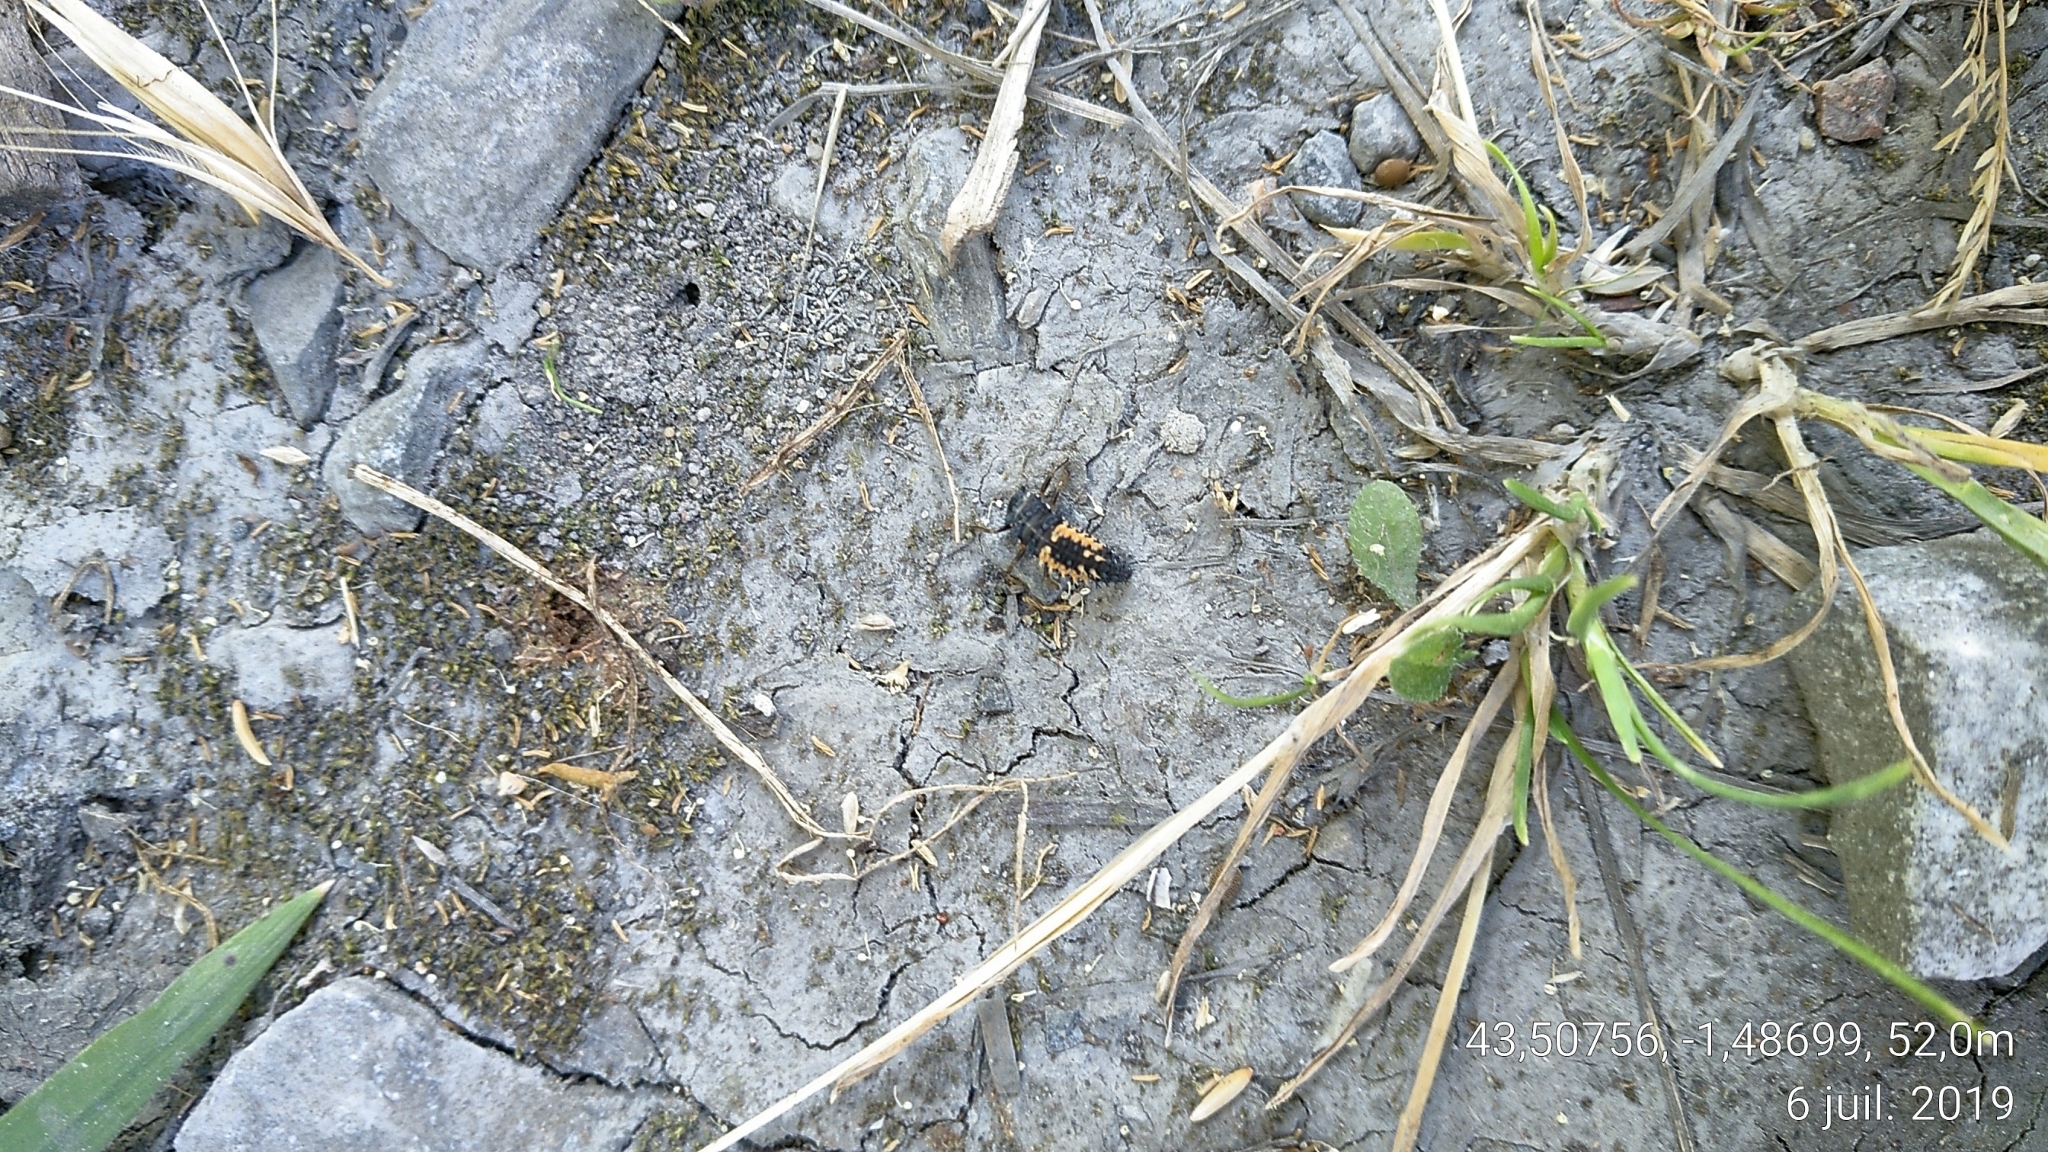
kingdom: Animalia
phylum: Arthropoda
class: Insecta
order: Coleoptera
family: Coccinellidae
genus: Harmonia
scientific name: Harmonia axyridis
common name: Harlequin ladybird
